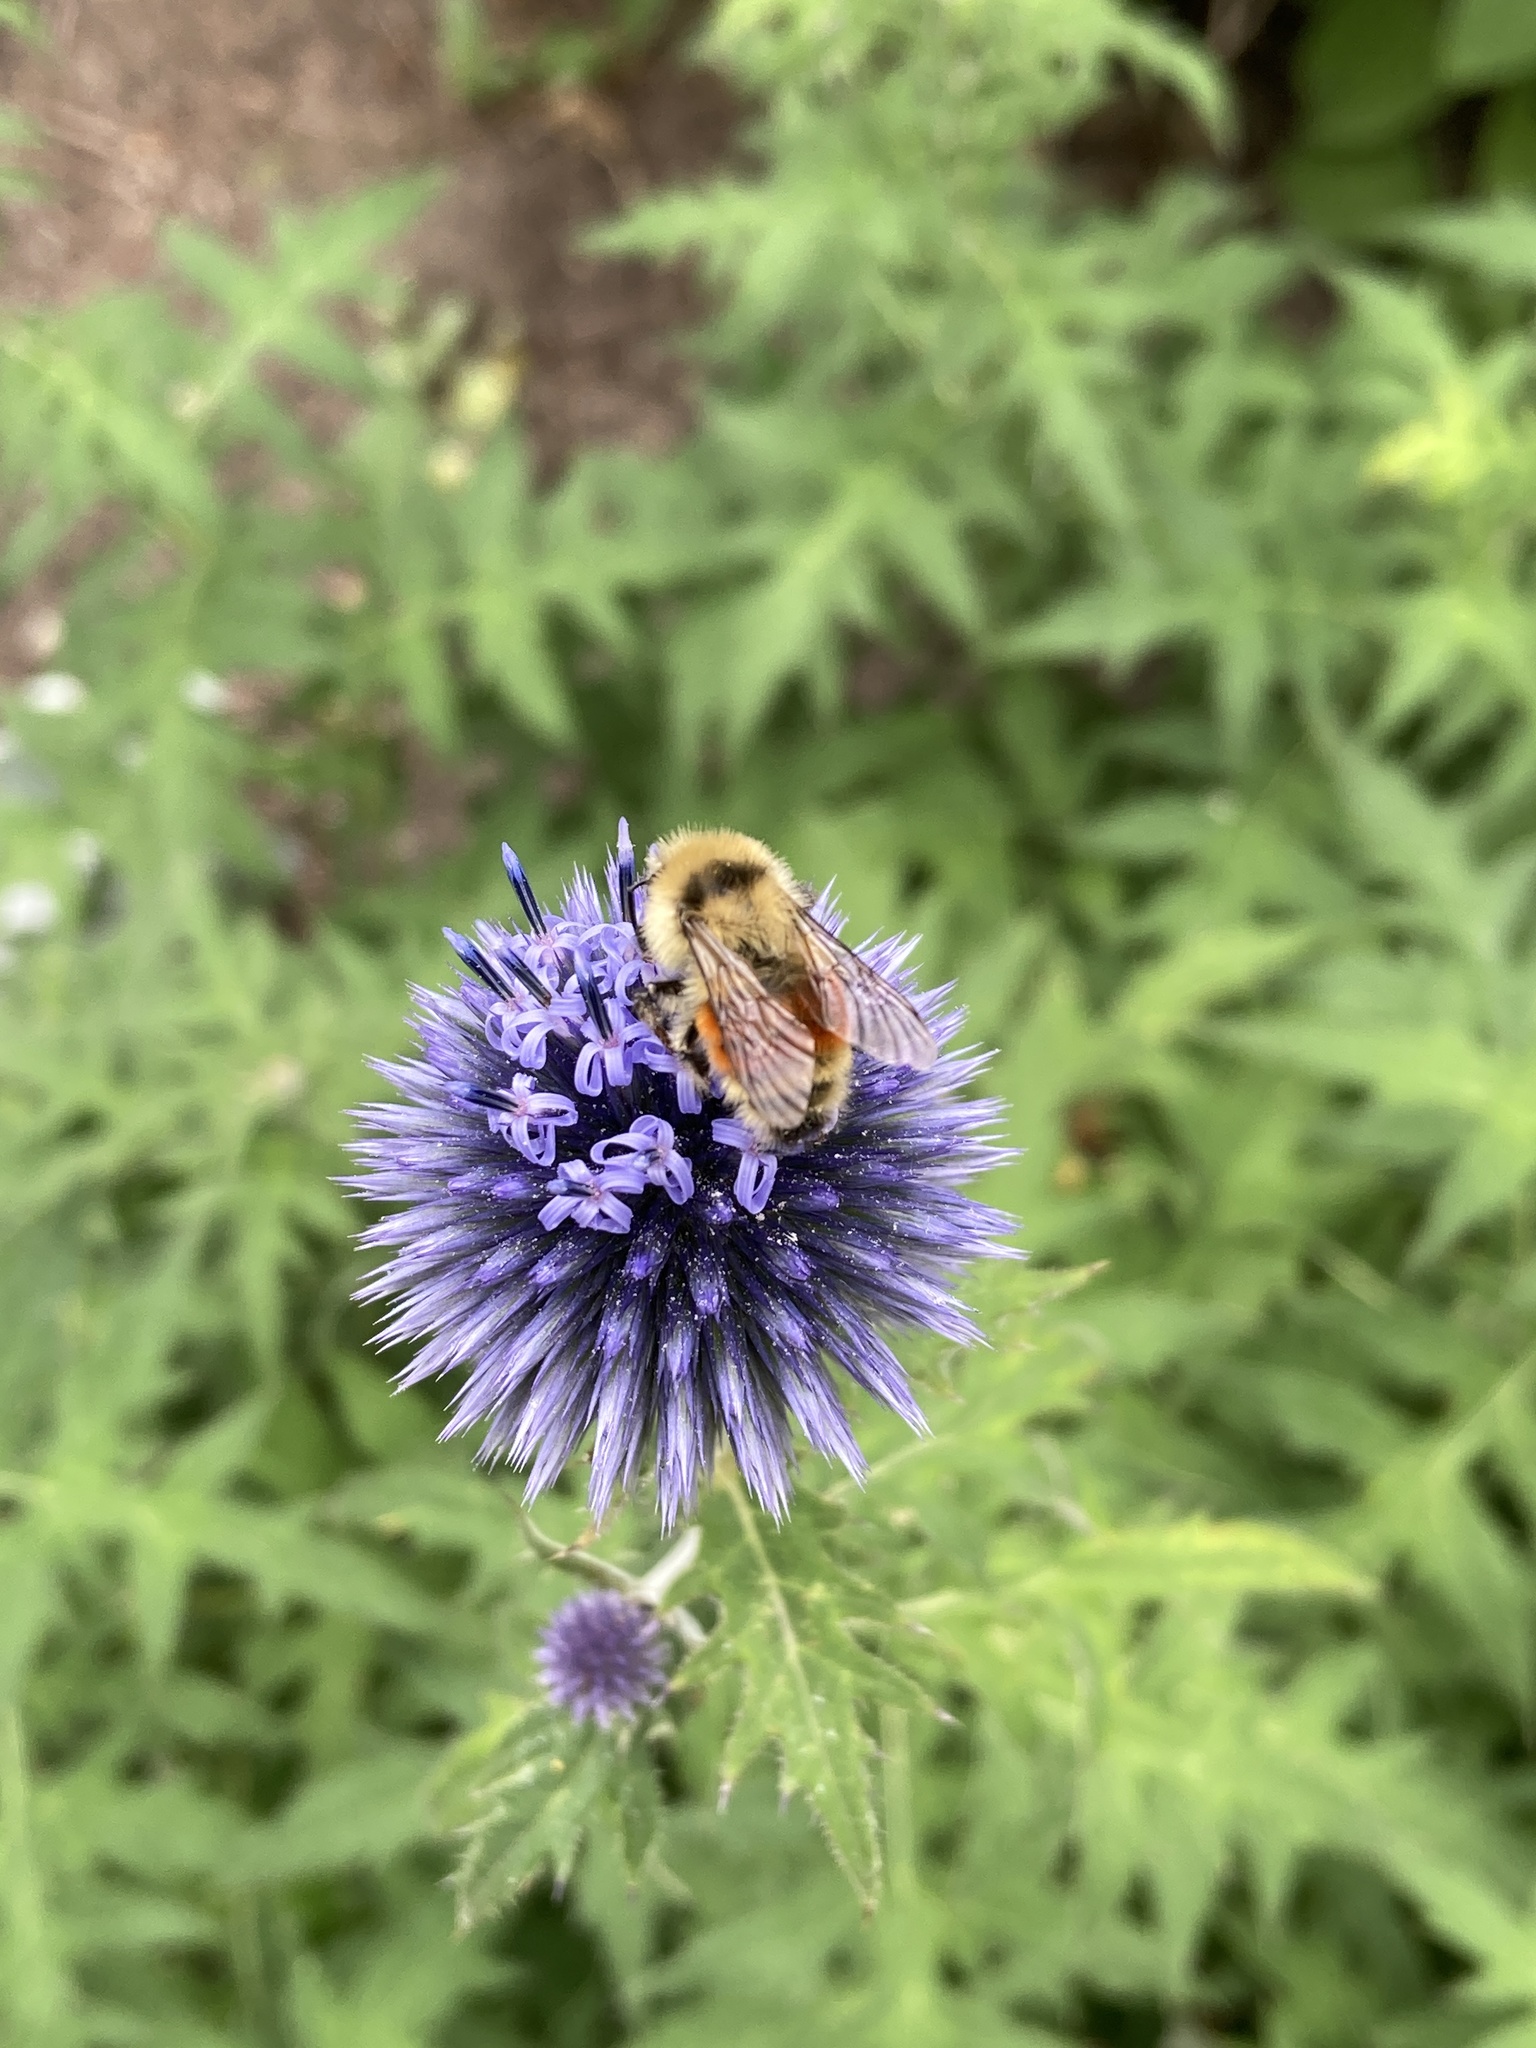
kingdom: Animalia
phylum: Arthropoda
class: Insecta
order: Hymenoptera
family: Apidae
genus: Bombus
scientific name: Bombus huntii
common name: Hunt bumble bee
